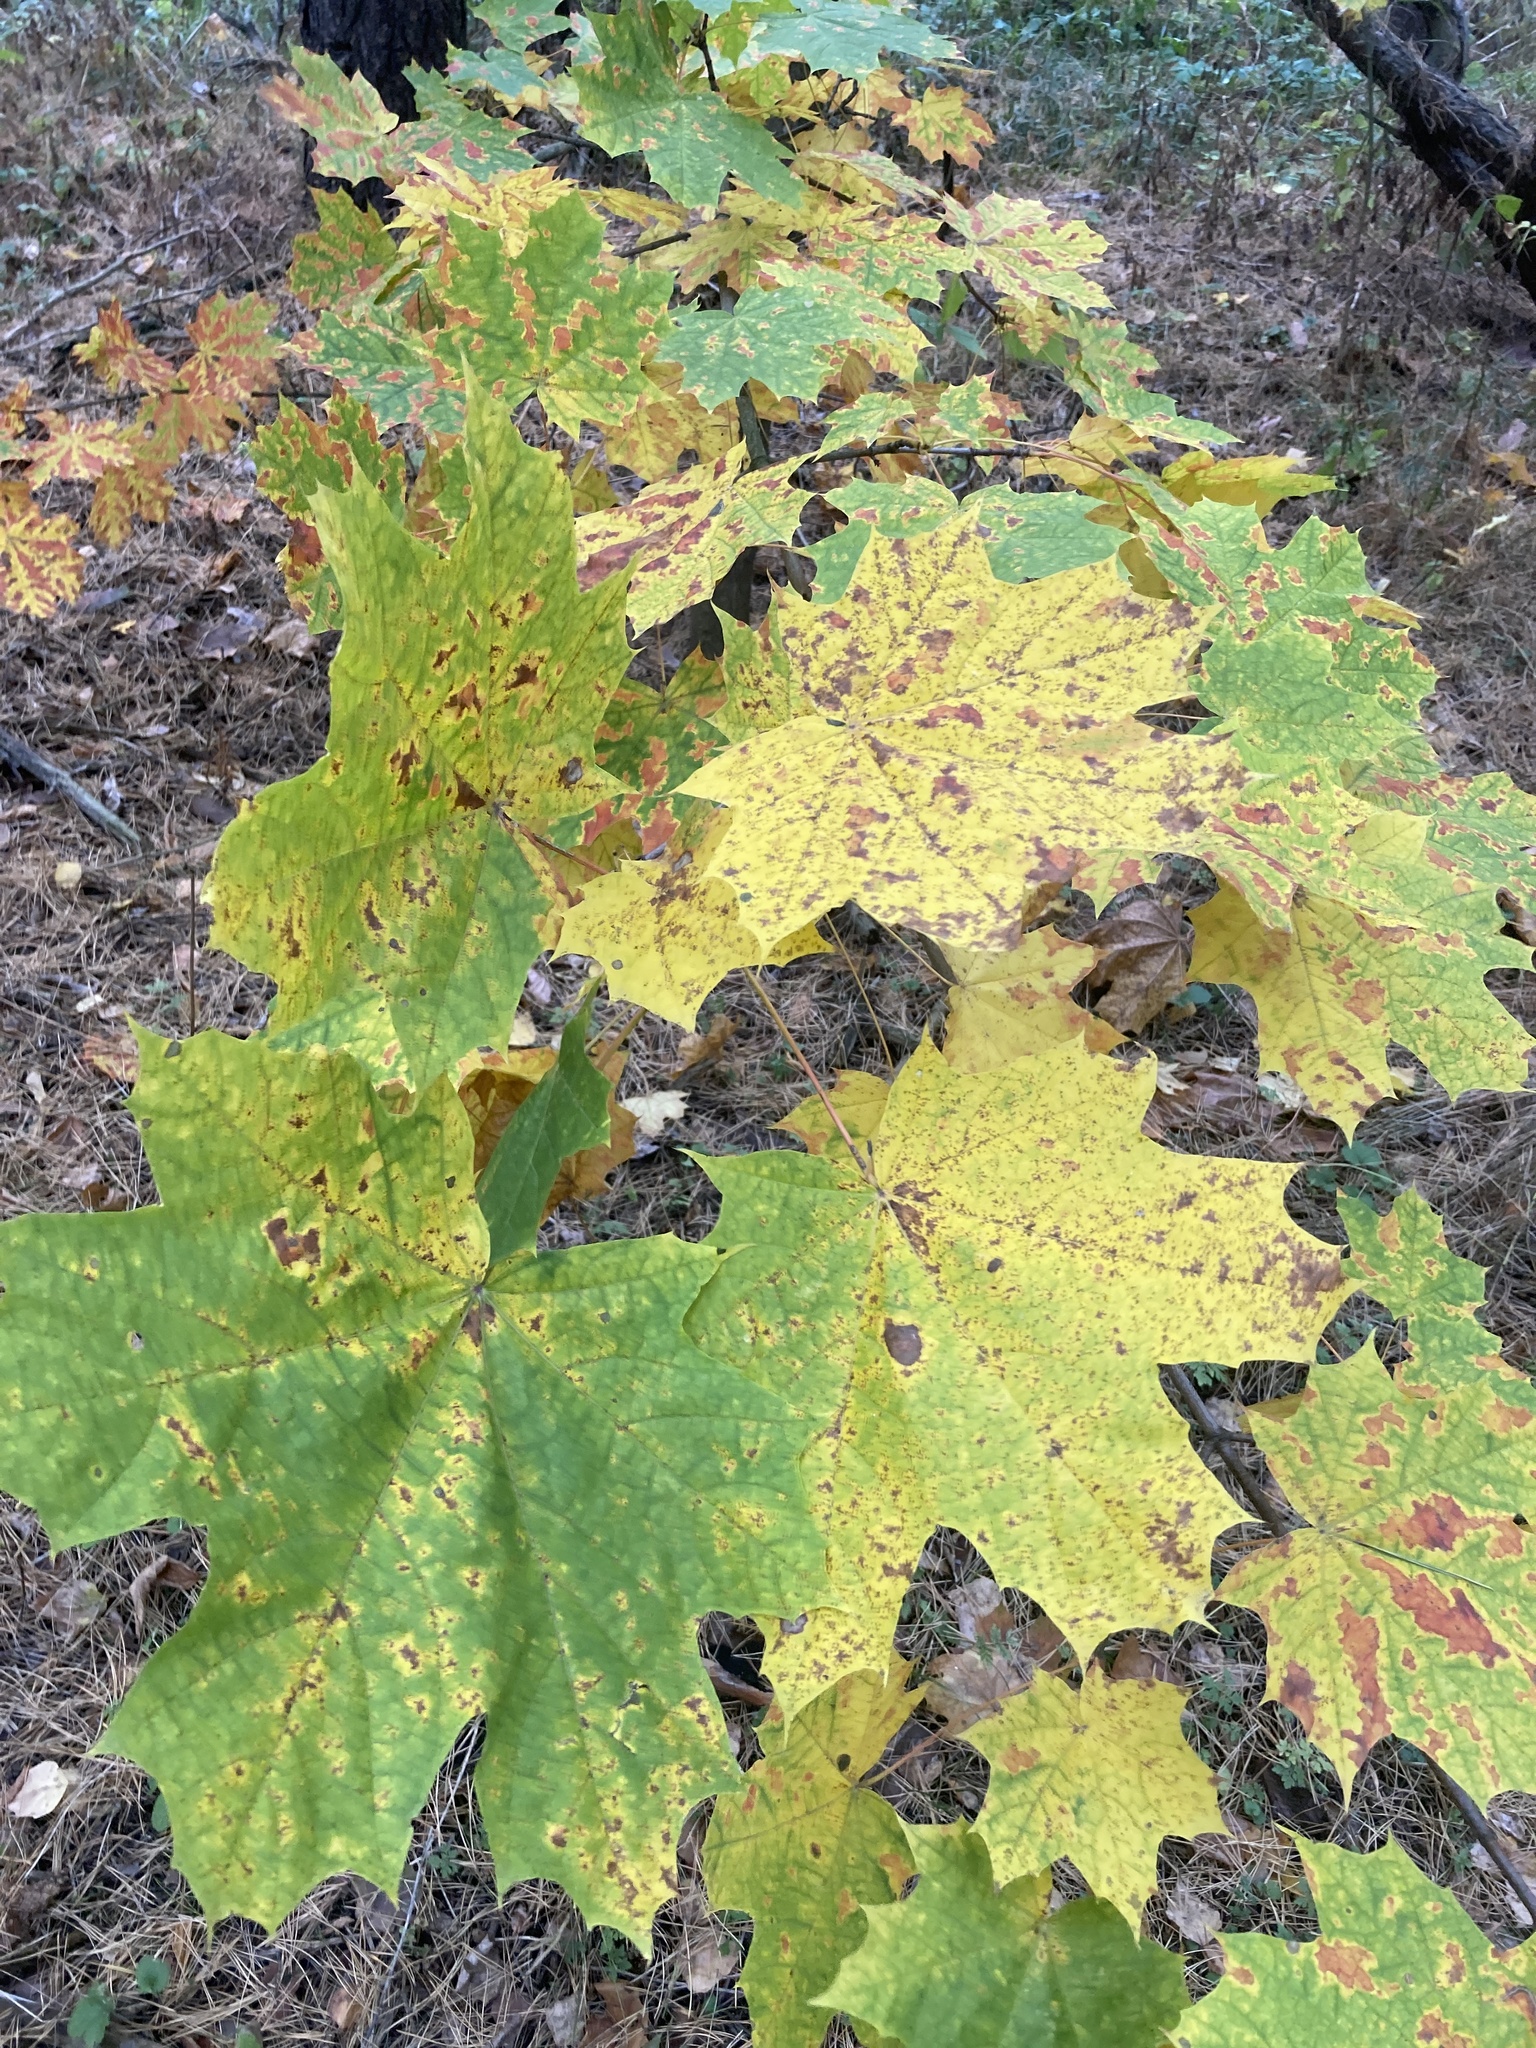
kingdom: Plantae
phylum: Tracheophyta
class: Magnoliopsida
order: Sapindales
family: Sapindaceae
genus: Acer
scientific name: Acer platanoides
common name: Norway maple
